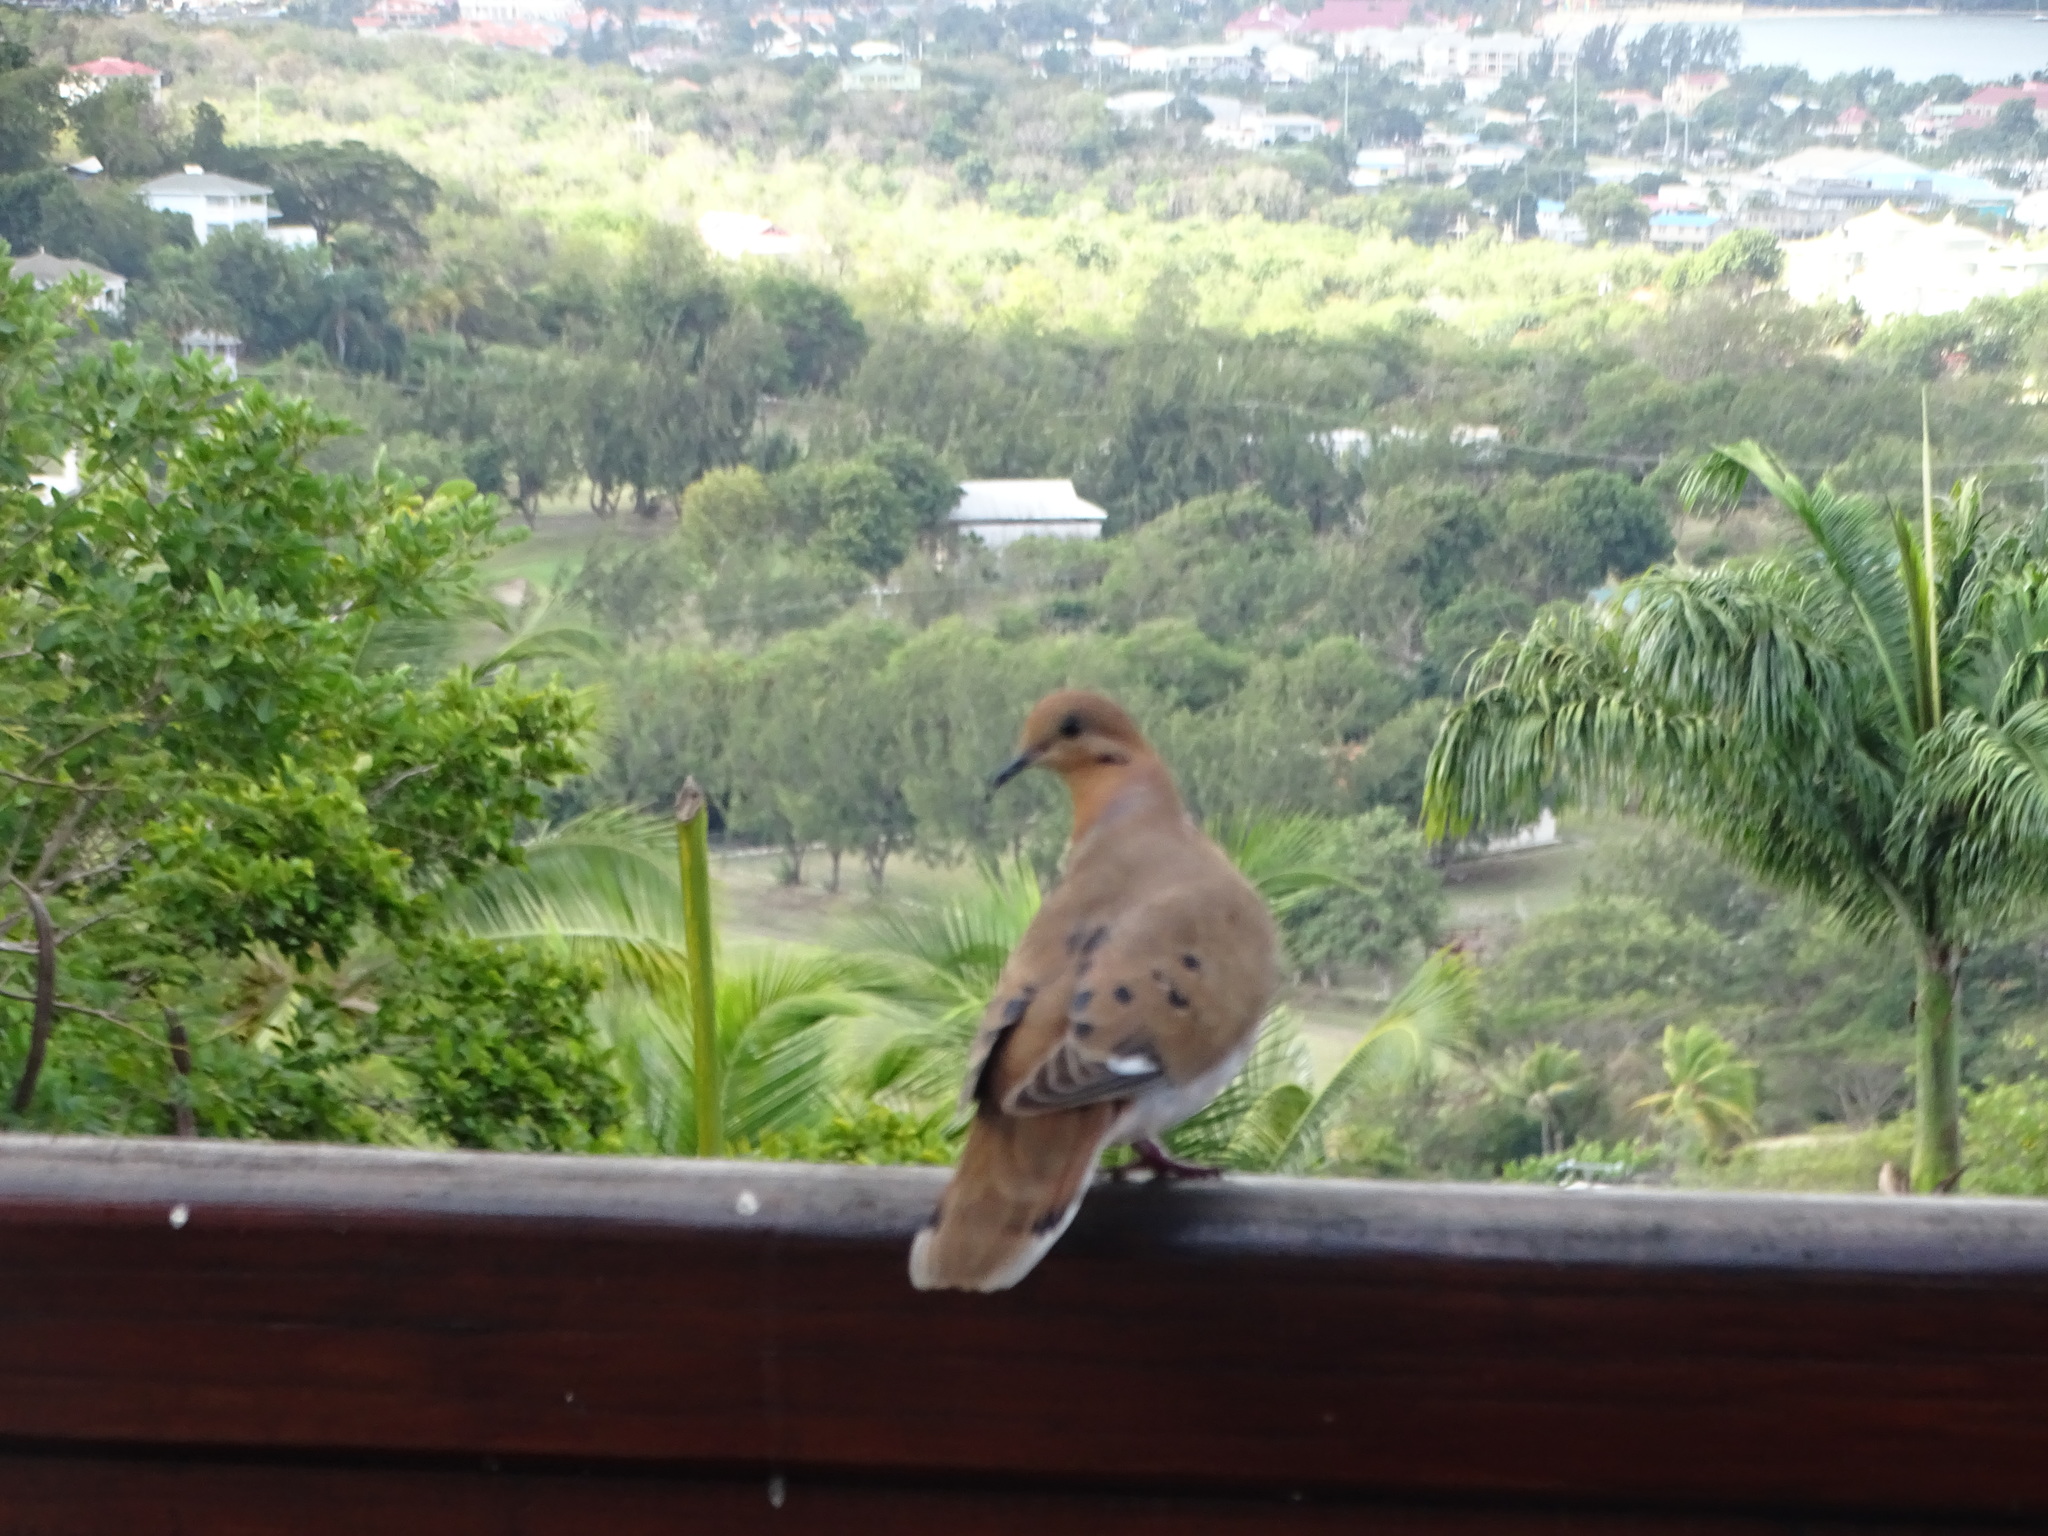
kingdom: Animalia
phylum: Chordata
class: Aves
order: Columbiformes
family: Columbidae
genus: Zenaida
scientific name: Zenaida aurita
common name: Zenaida dove
